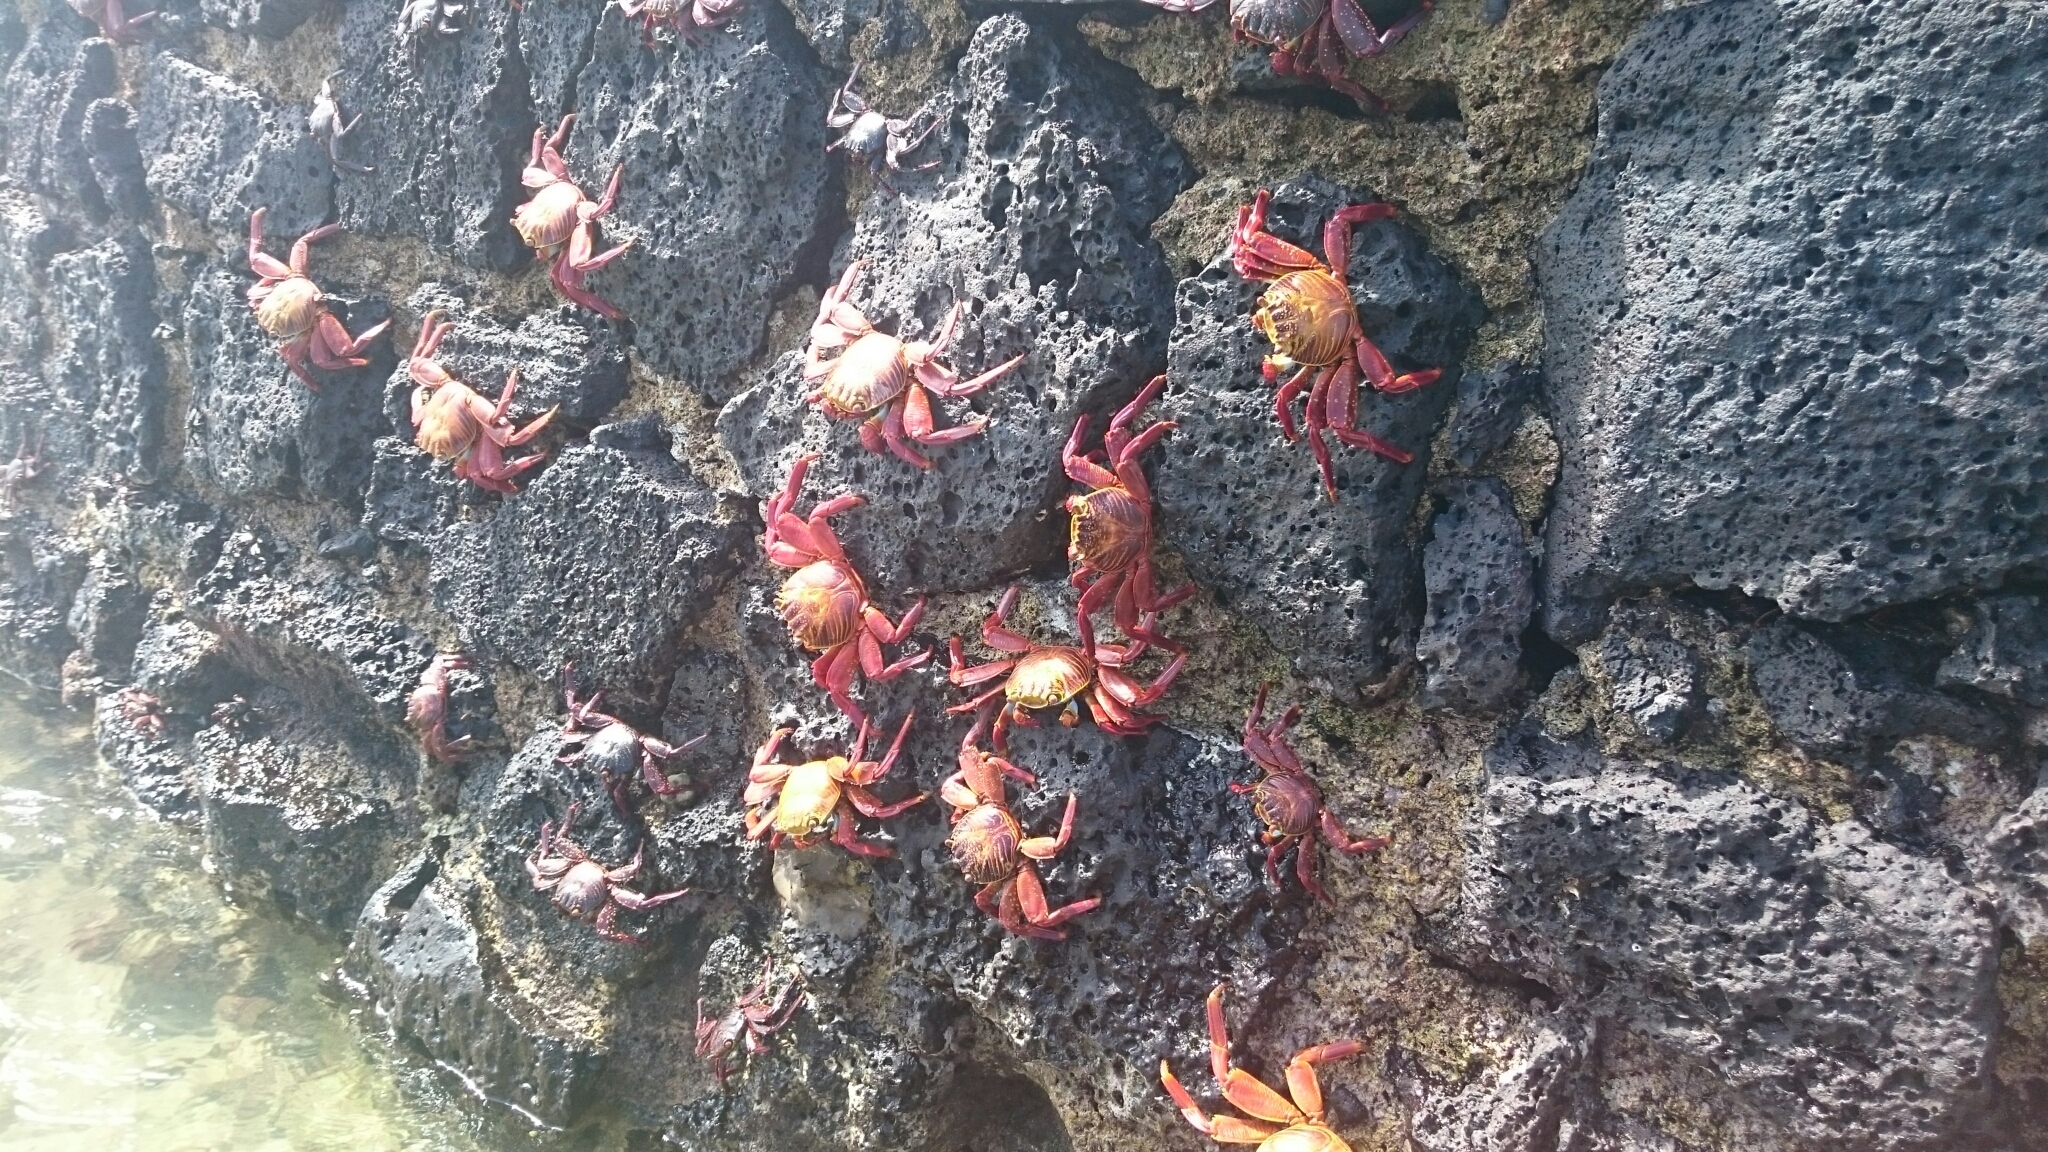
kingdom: Animalia
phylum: Arthropoda
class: Malacostraca
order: Decapoda
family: Grapsidae
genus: Grapsus
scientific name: Grapsus grapsus
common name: Sally lightfoot
